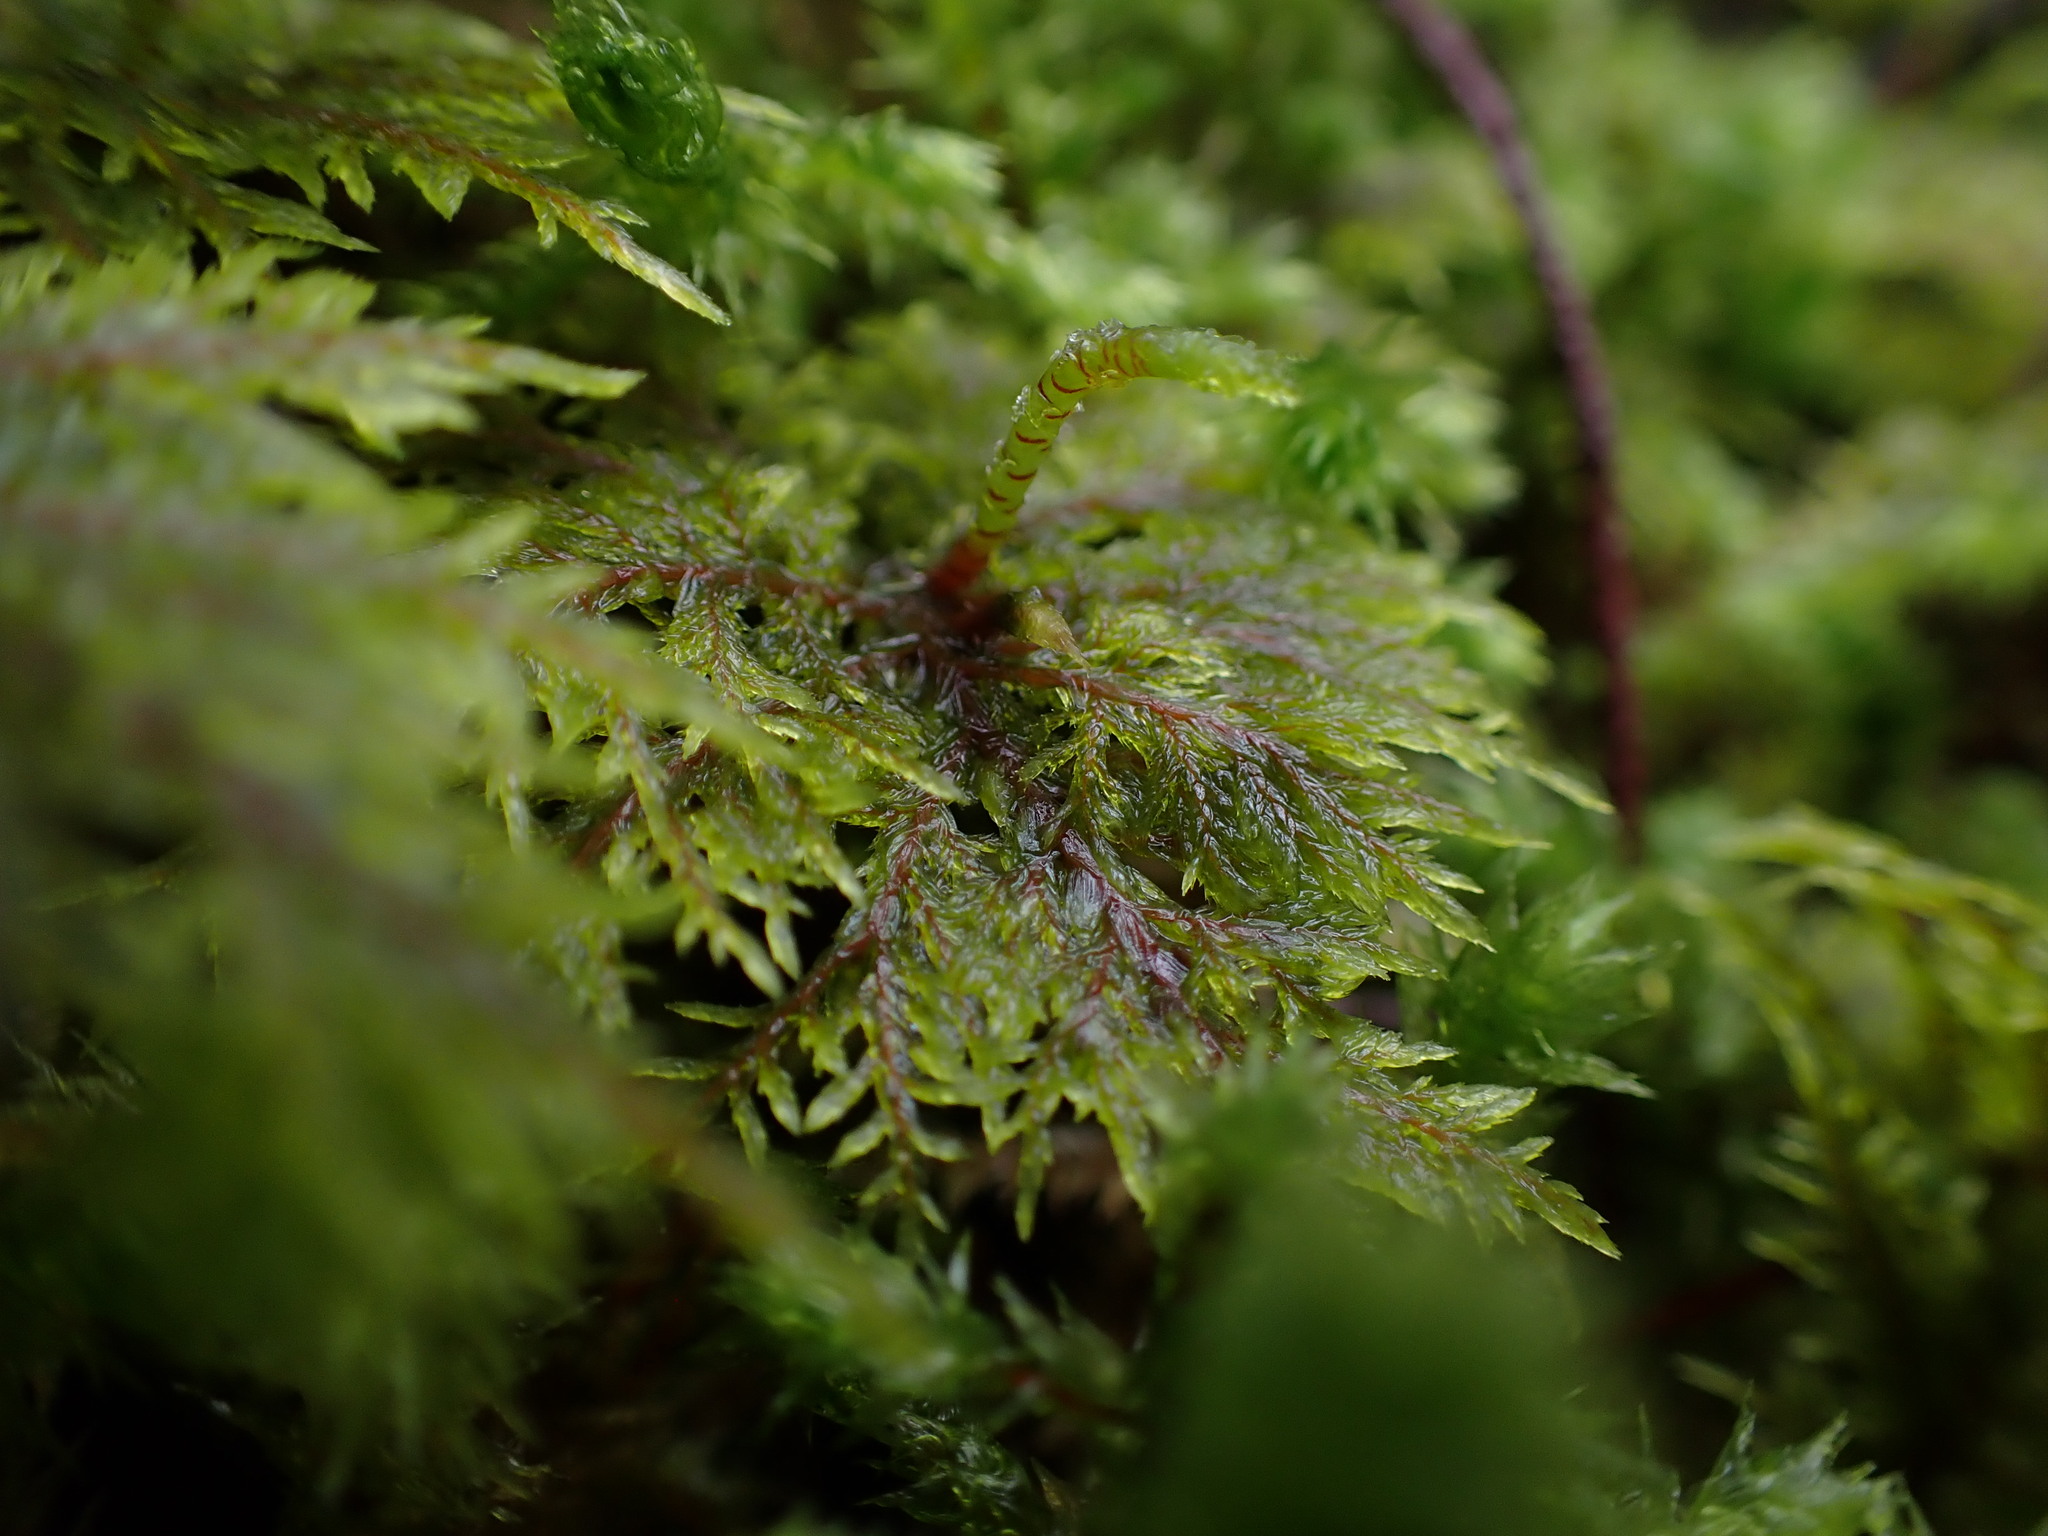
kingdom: Plantae
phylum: Bryophyta
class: Bryopsida
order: Hypnales
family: Hylocomiaceae
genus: Hylocomium
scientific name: Hylocomium splendens
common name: Stairstep moss
